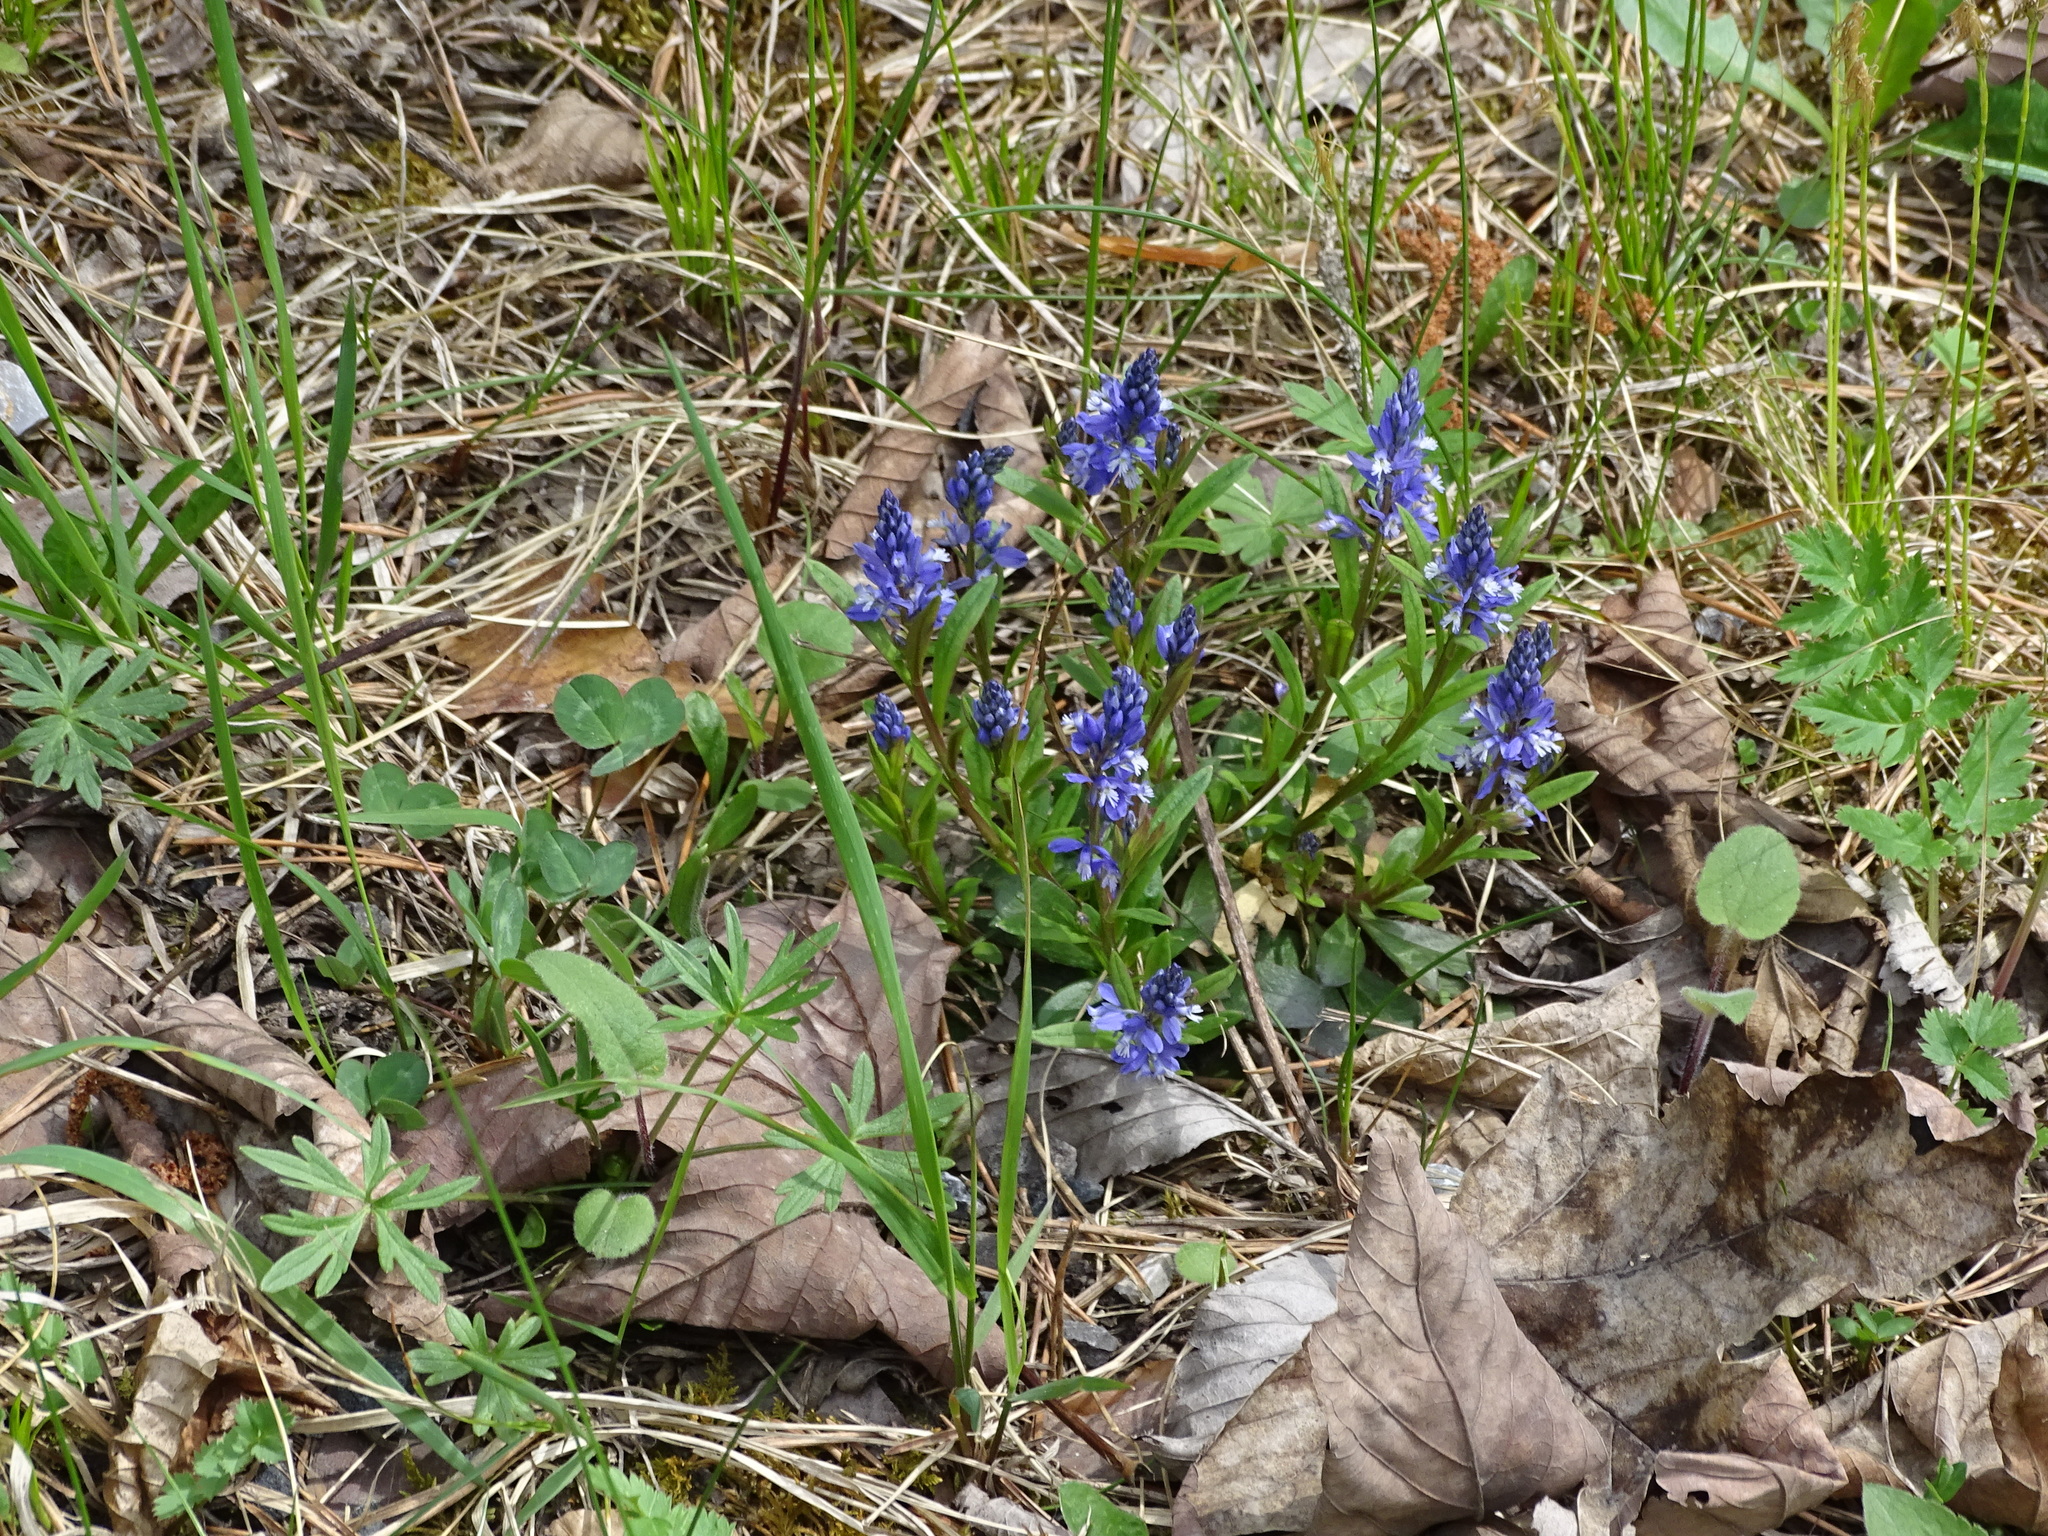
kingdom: Plantae
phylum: Tracheophyta
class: Magnoliopsida
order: Fabales
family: Polygalaceae
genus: Polygala
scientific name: Polygala amara
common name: Milkwort
